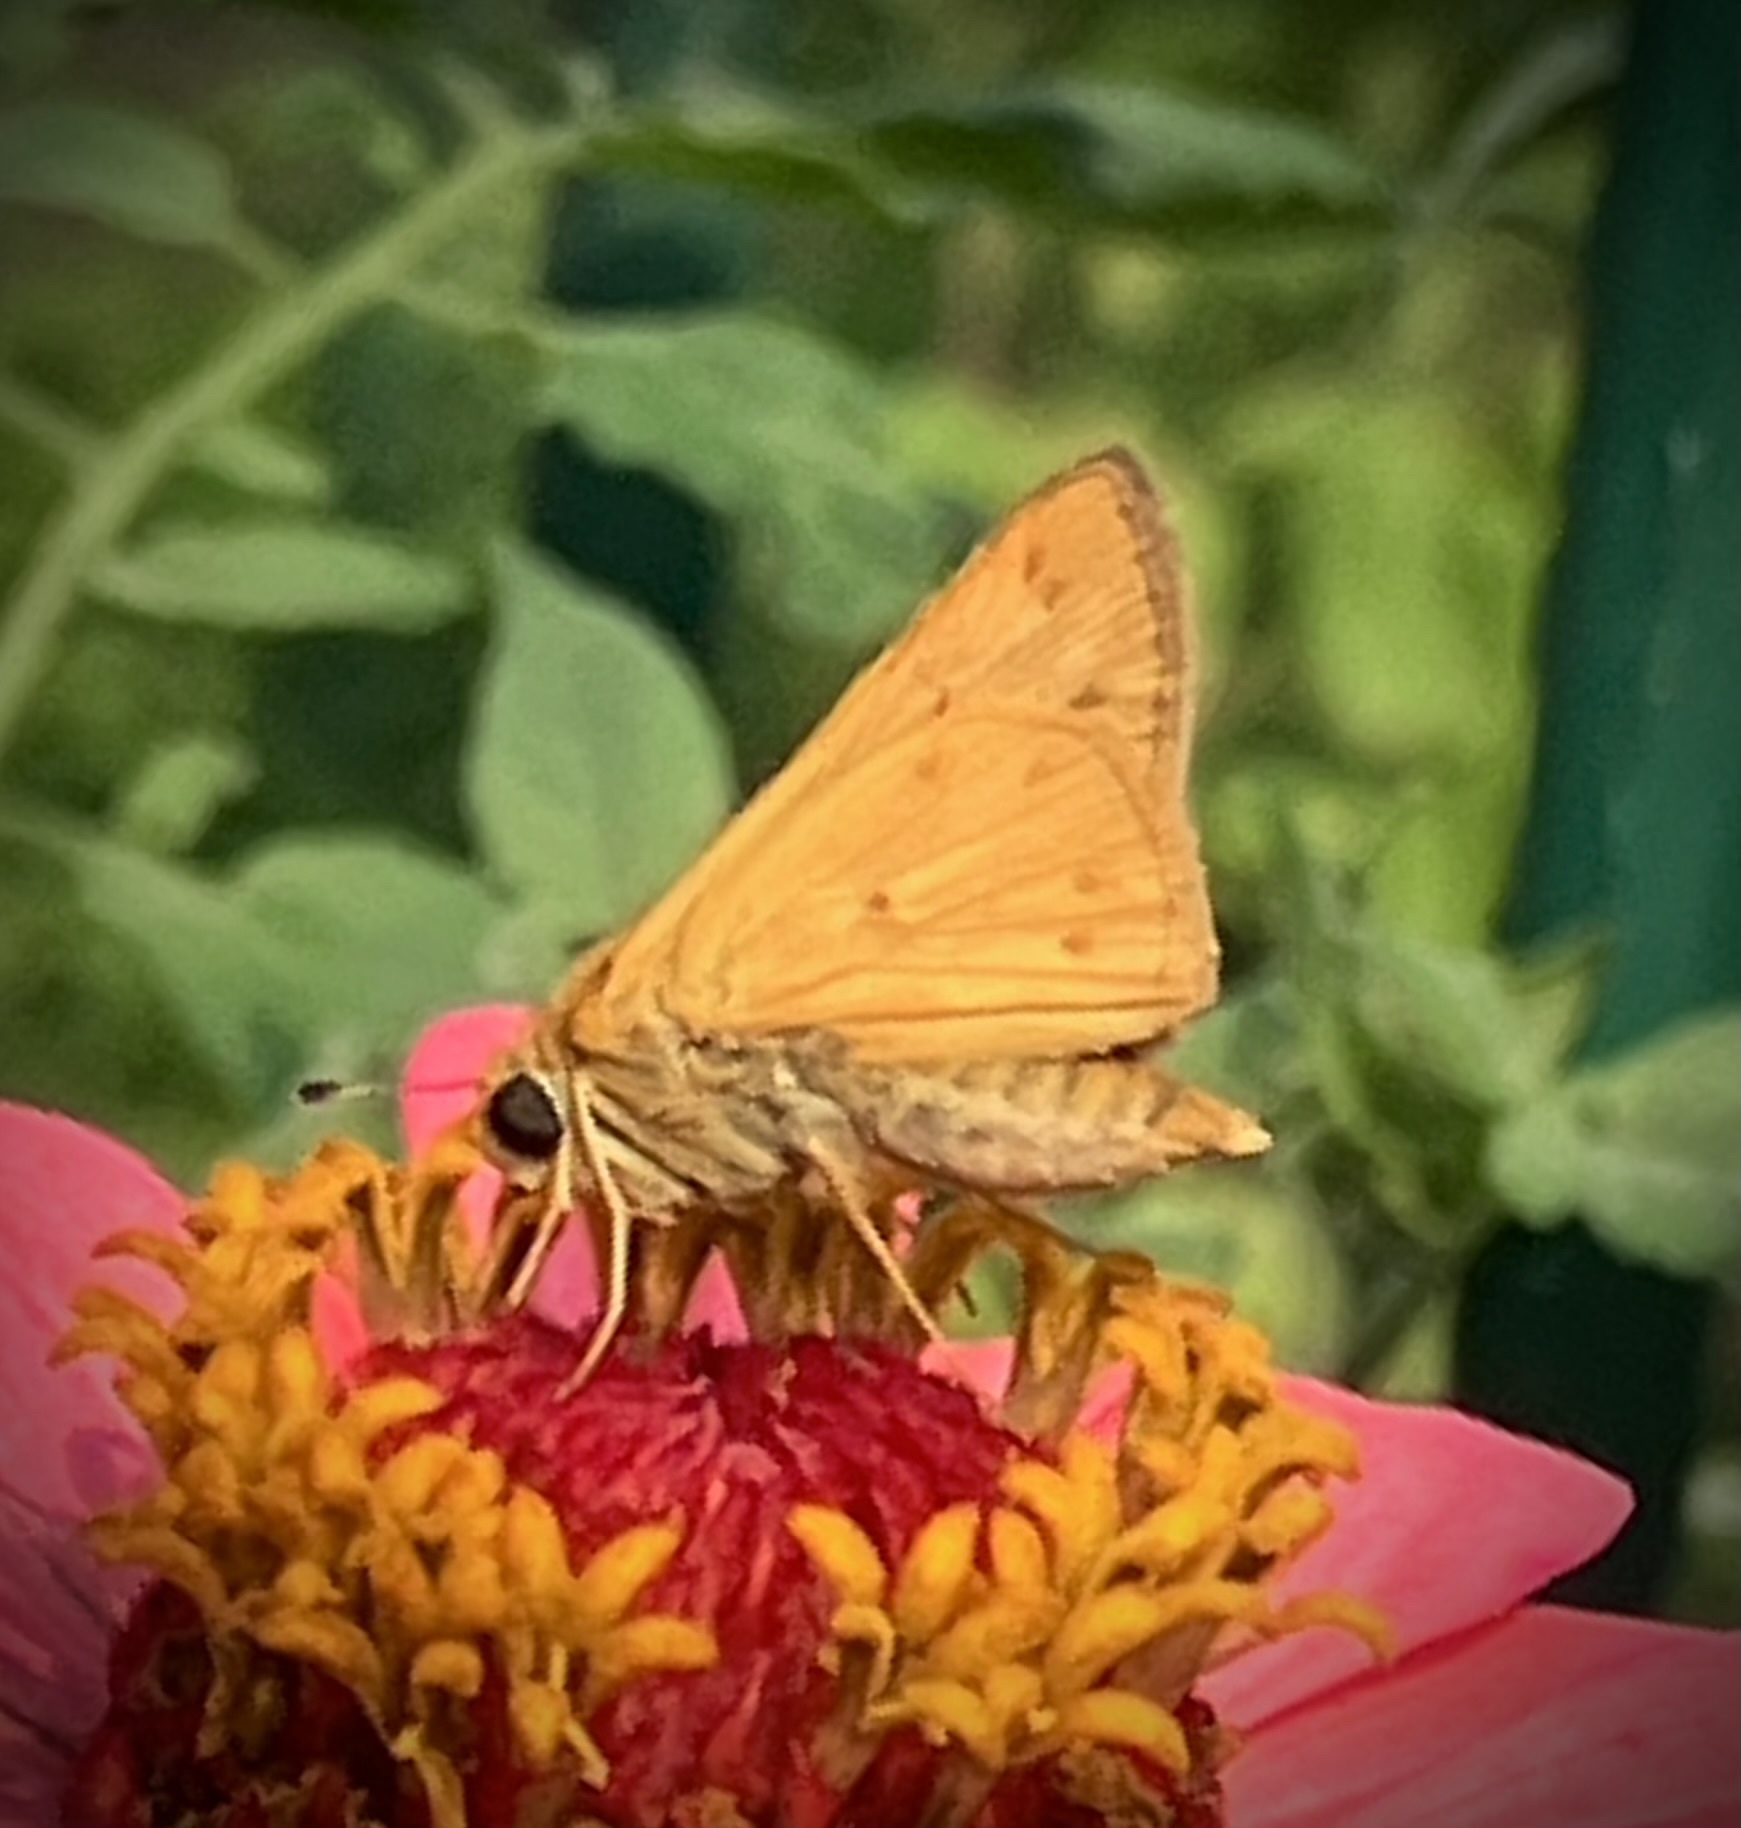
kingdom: Animalia
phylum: Arthropoda
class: Insecta
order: Lepidoptera
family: Hesperiidae
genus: Hylephila
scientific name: Hylephila phyleus
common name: Fiery skipper
